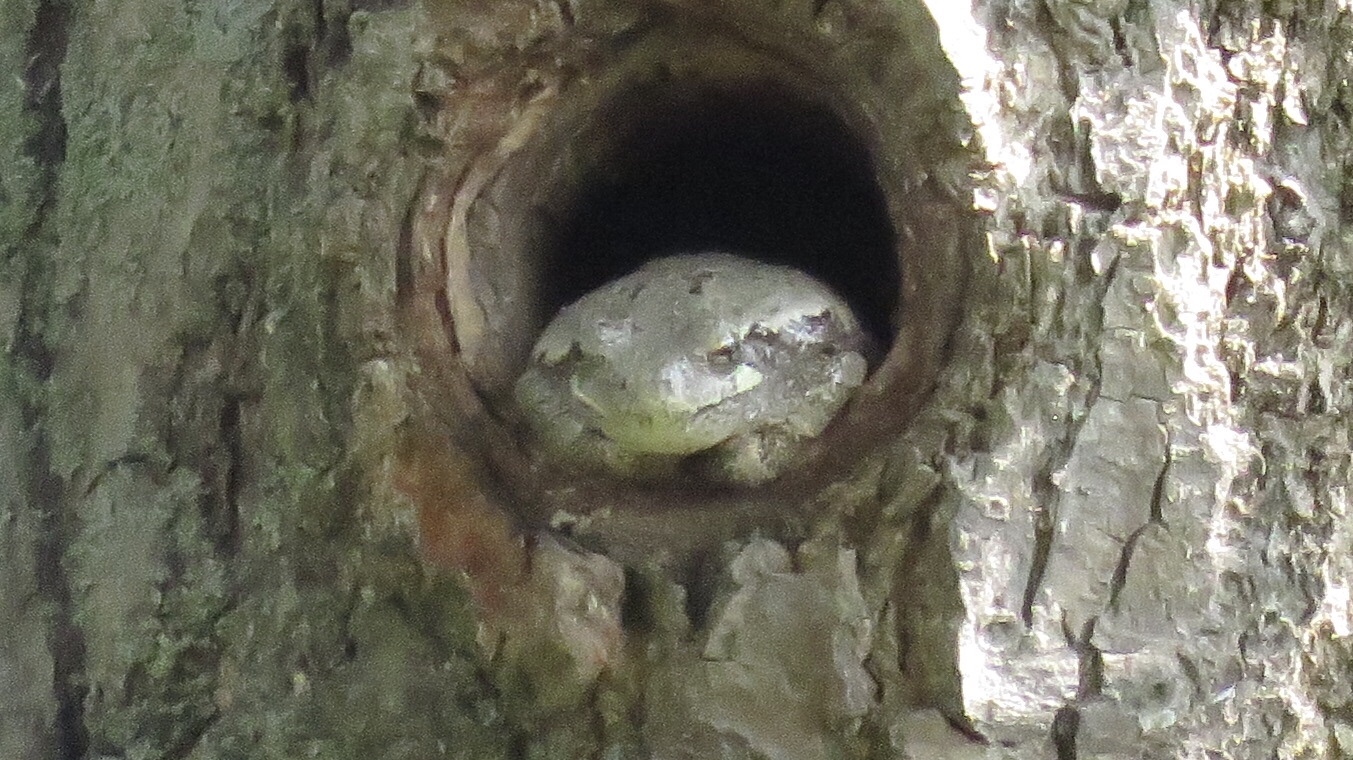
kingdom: Animalia
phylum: Chordata
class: Amphibia
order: Anura
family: Hylidae
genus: Dryophytes
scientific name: Dryophytes versicolor
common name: Gray treefrog
